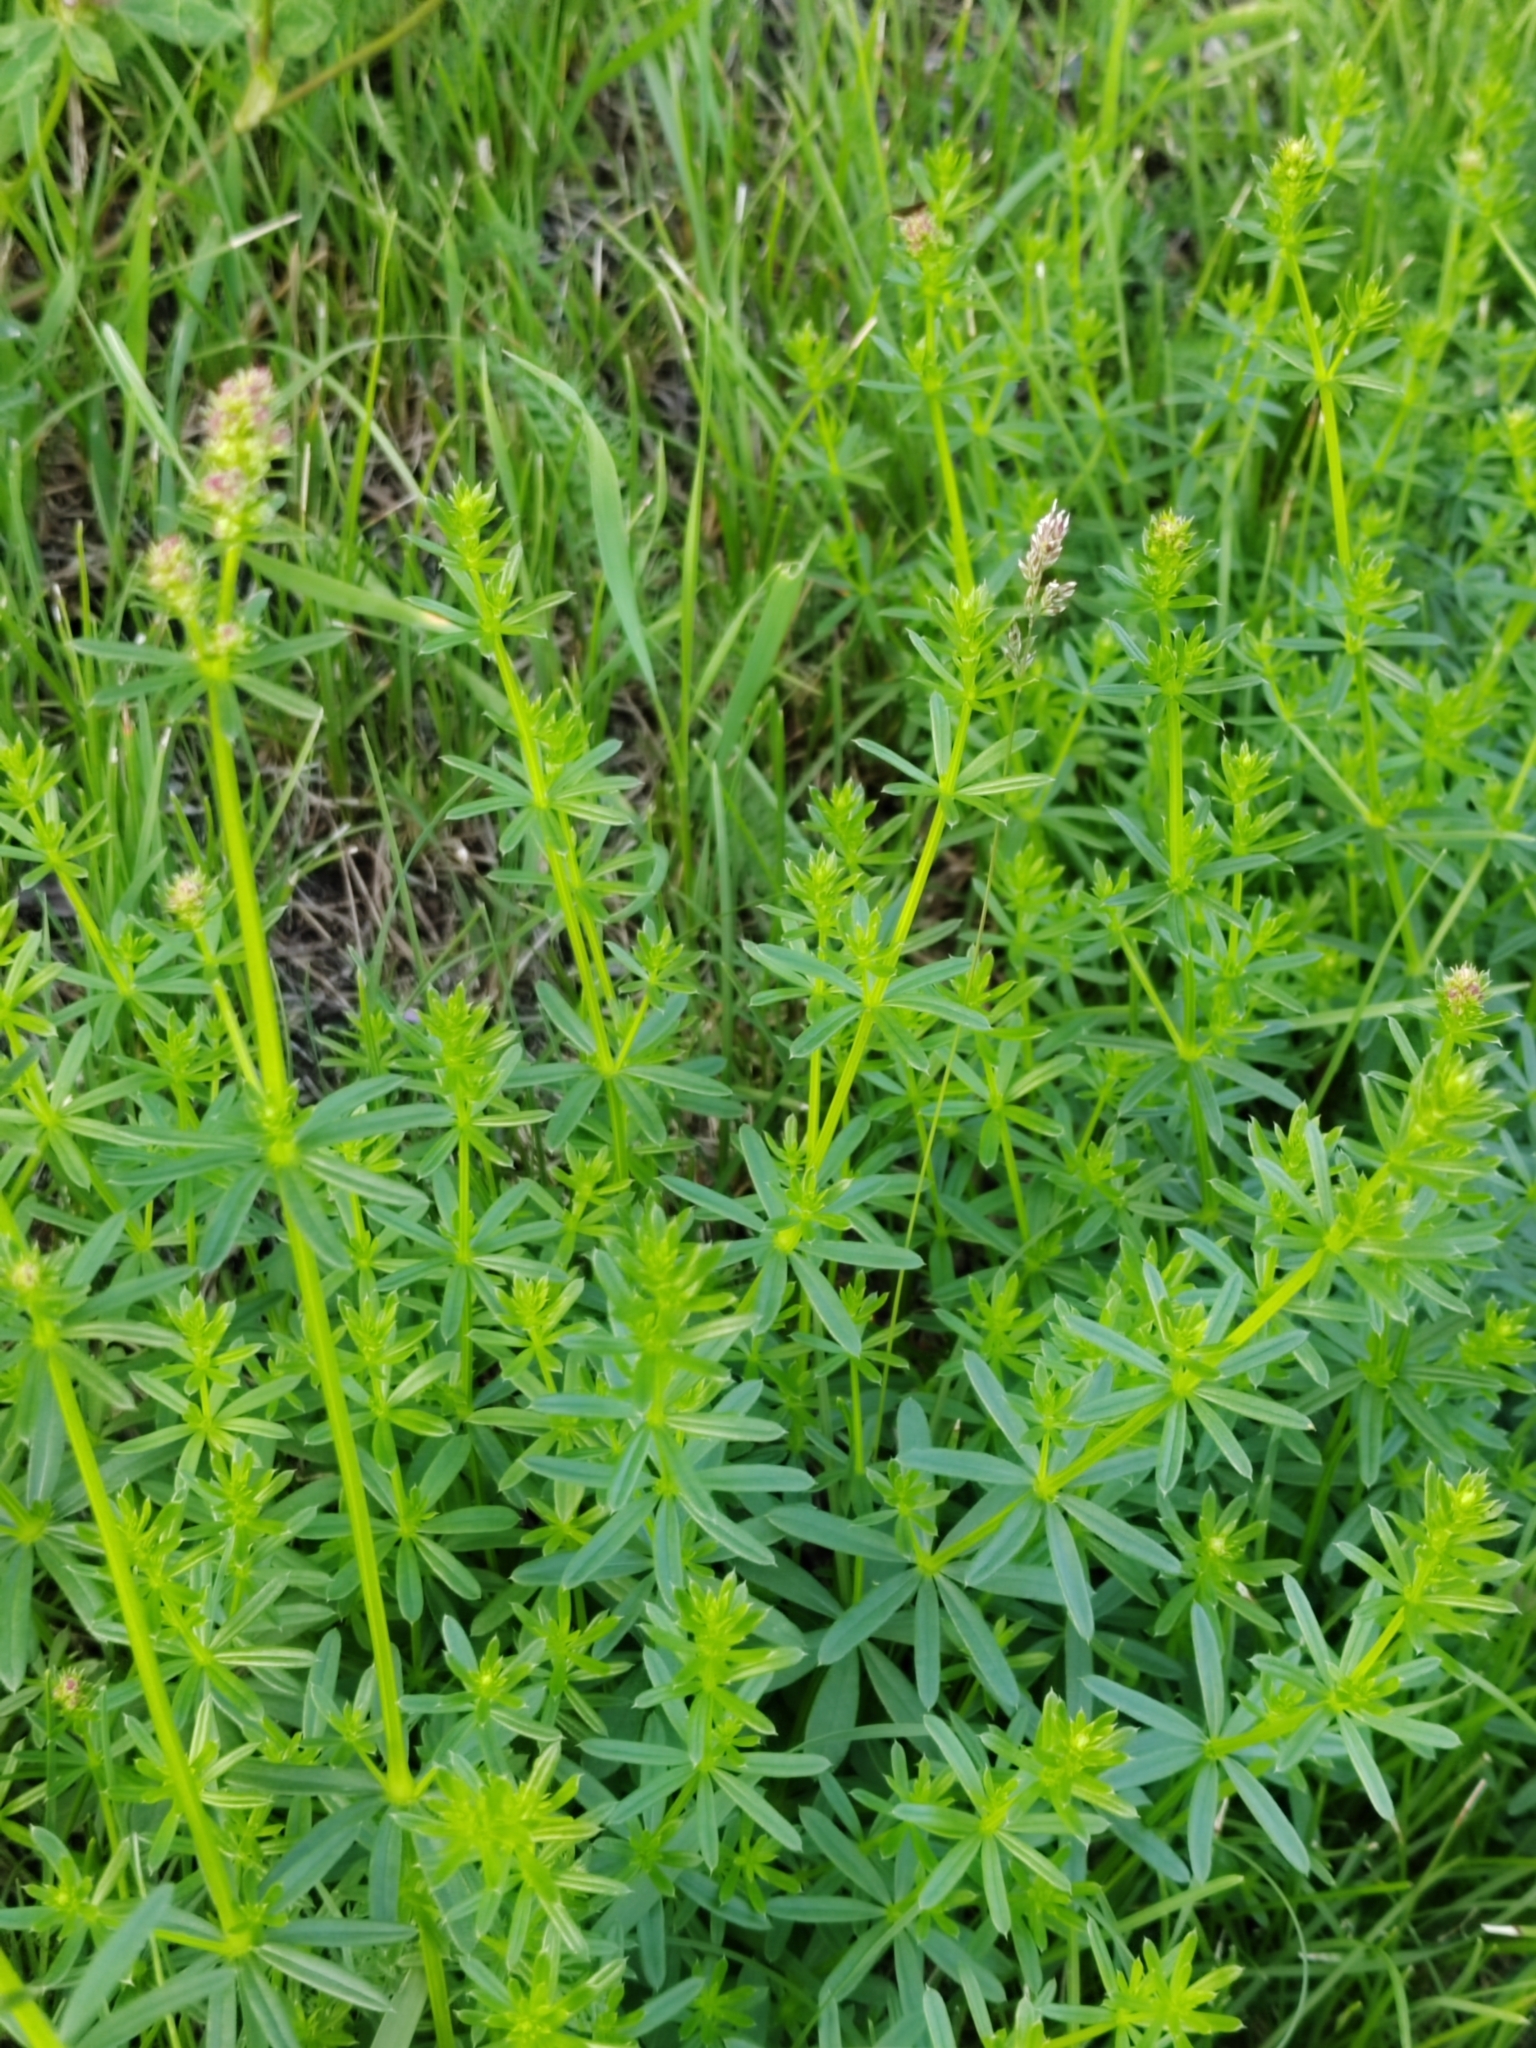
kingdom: Plantae
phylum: Tracheophyta
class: Magnoliopsida
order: Gentianales
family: Rubiaceae
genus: Galium
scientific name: Galium mollugo
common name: Hedge bedstraw
